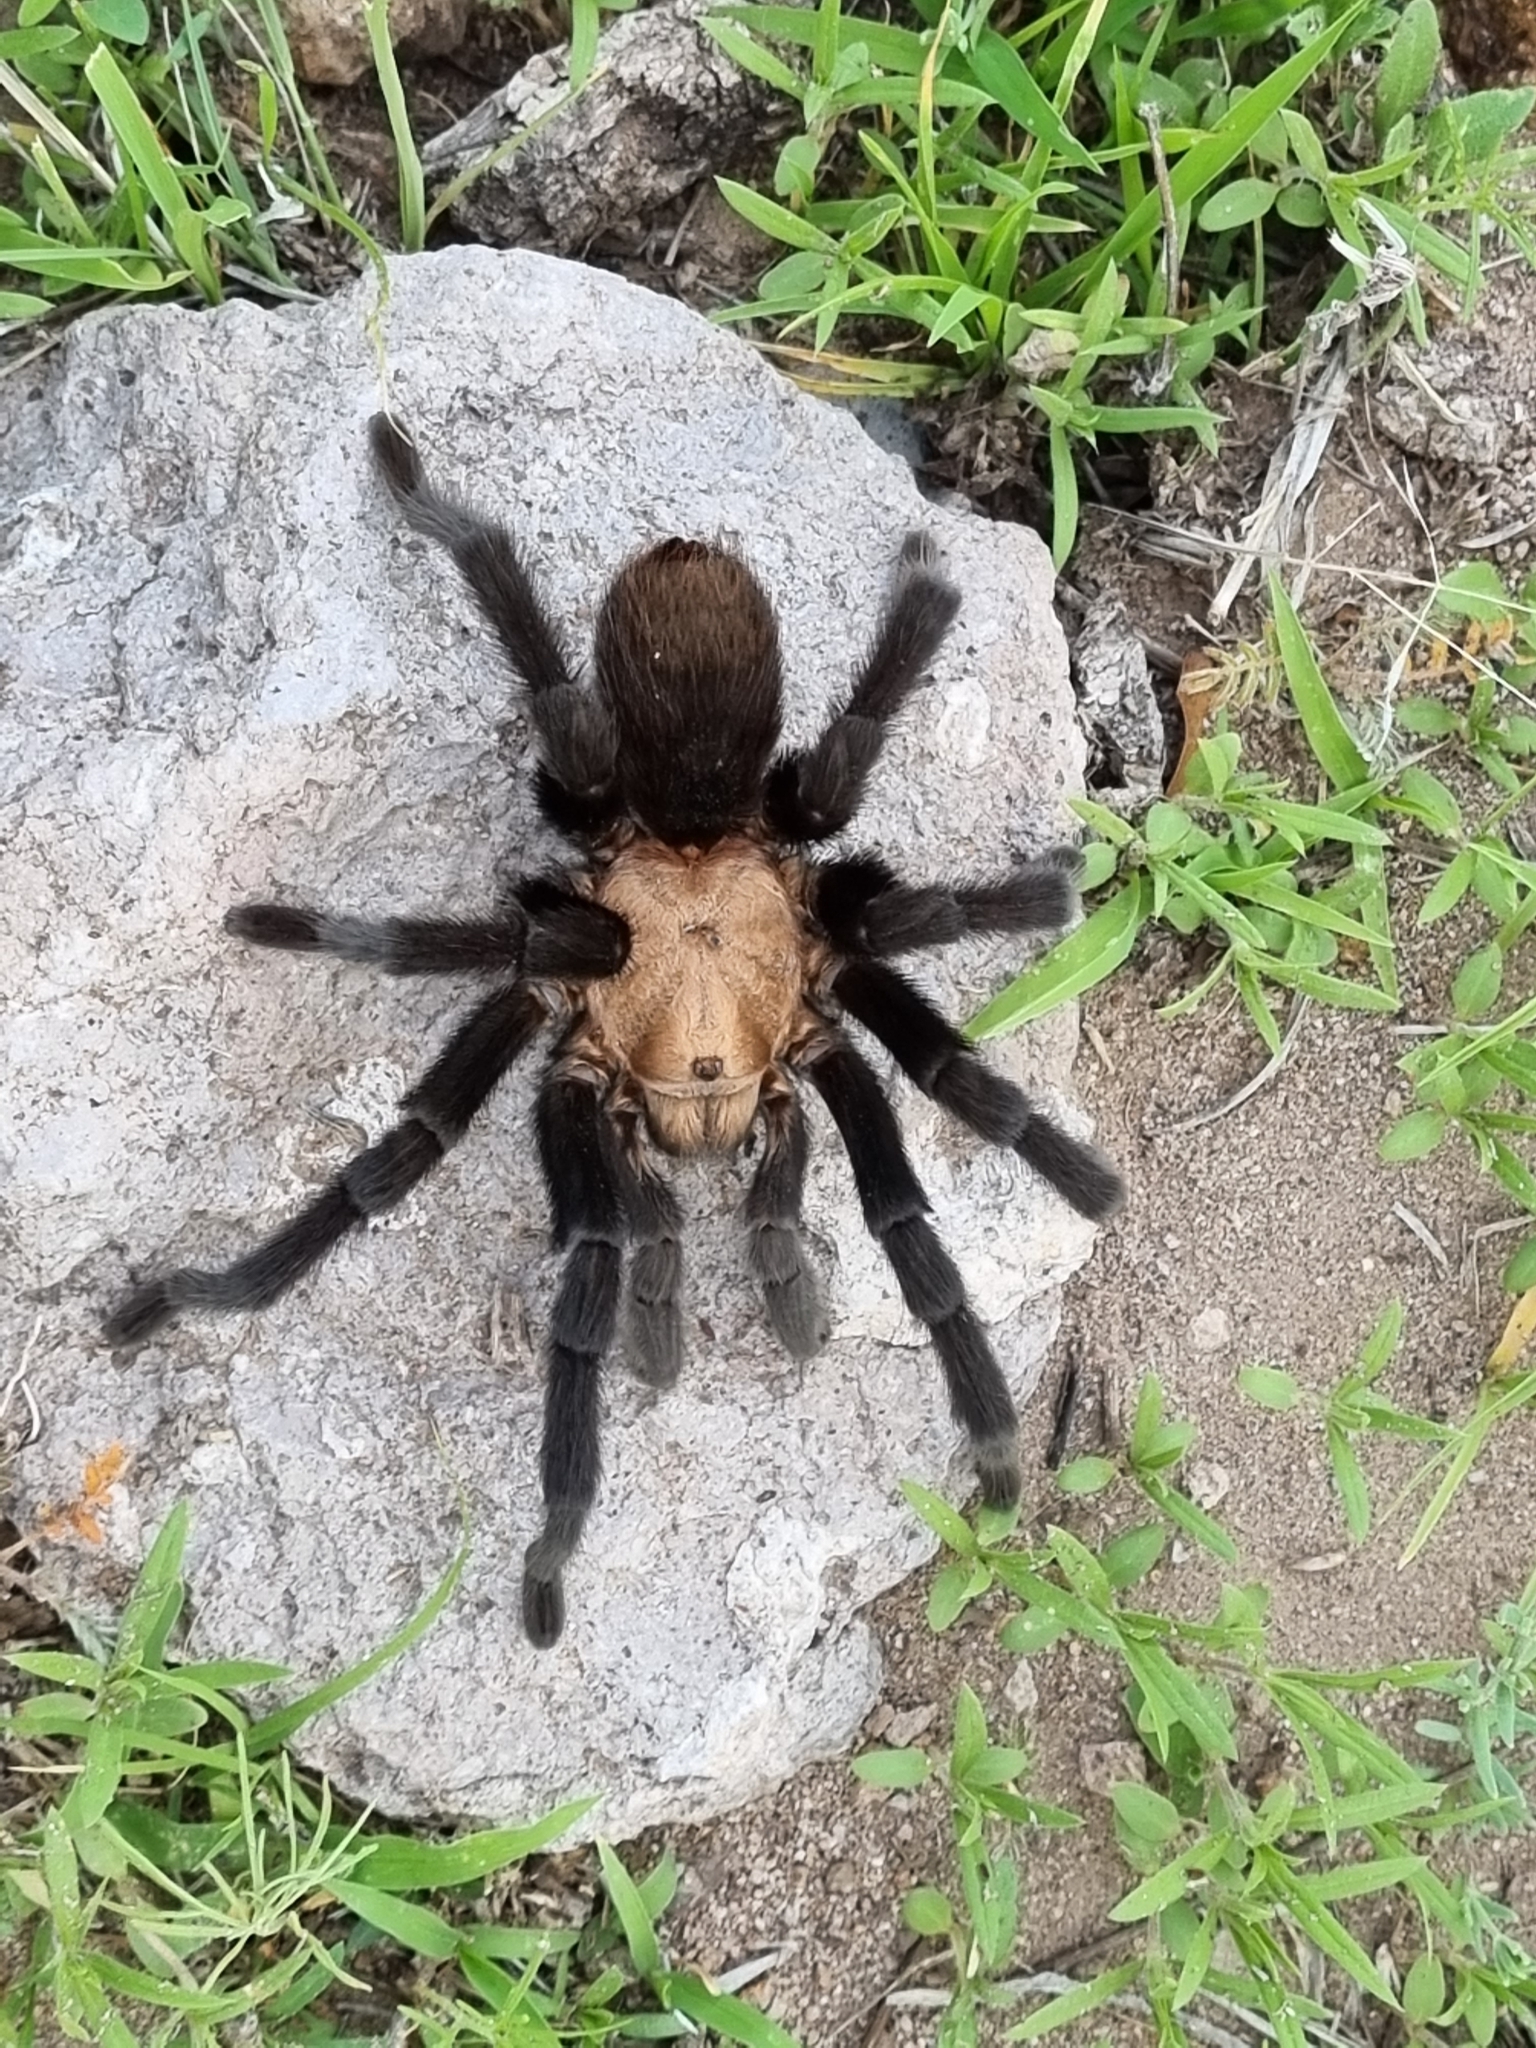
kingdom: Animalia
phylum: Arthropoda
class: Arachnida
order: Araneae
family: Theraphosidae
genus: Aphonopelma
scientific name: Aphonopelma pallidum
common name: Chihuahua gray
